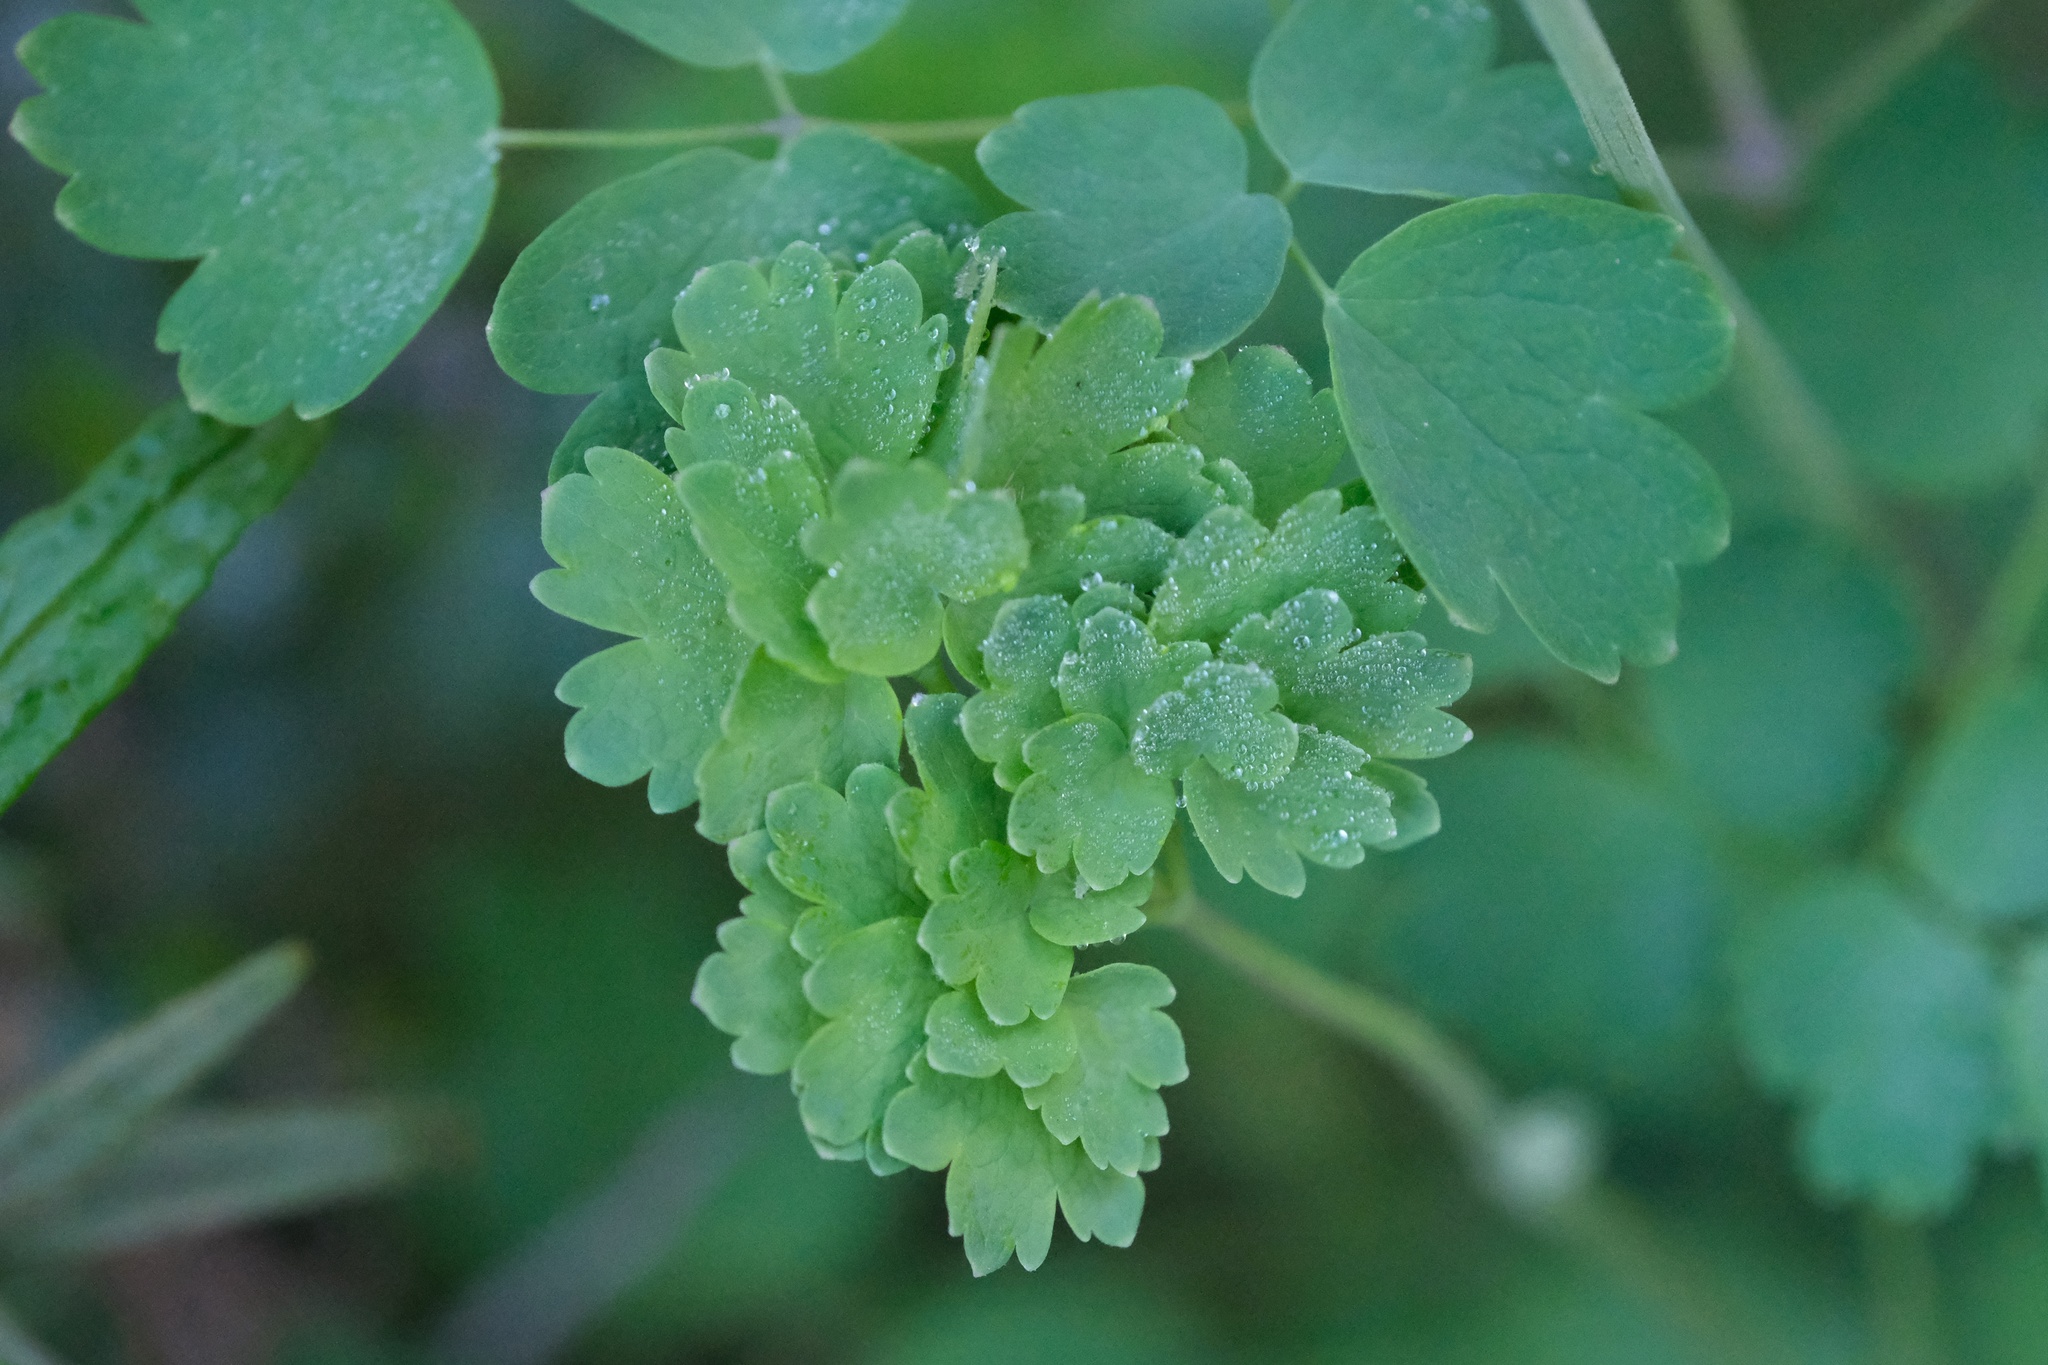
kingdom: Plantae
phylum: Tracheophyta
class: Magnoliopsida
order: Ranunculales
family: Ranunculaceae
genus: Thalictrum
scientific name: Thalictrum fendleri
